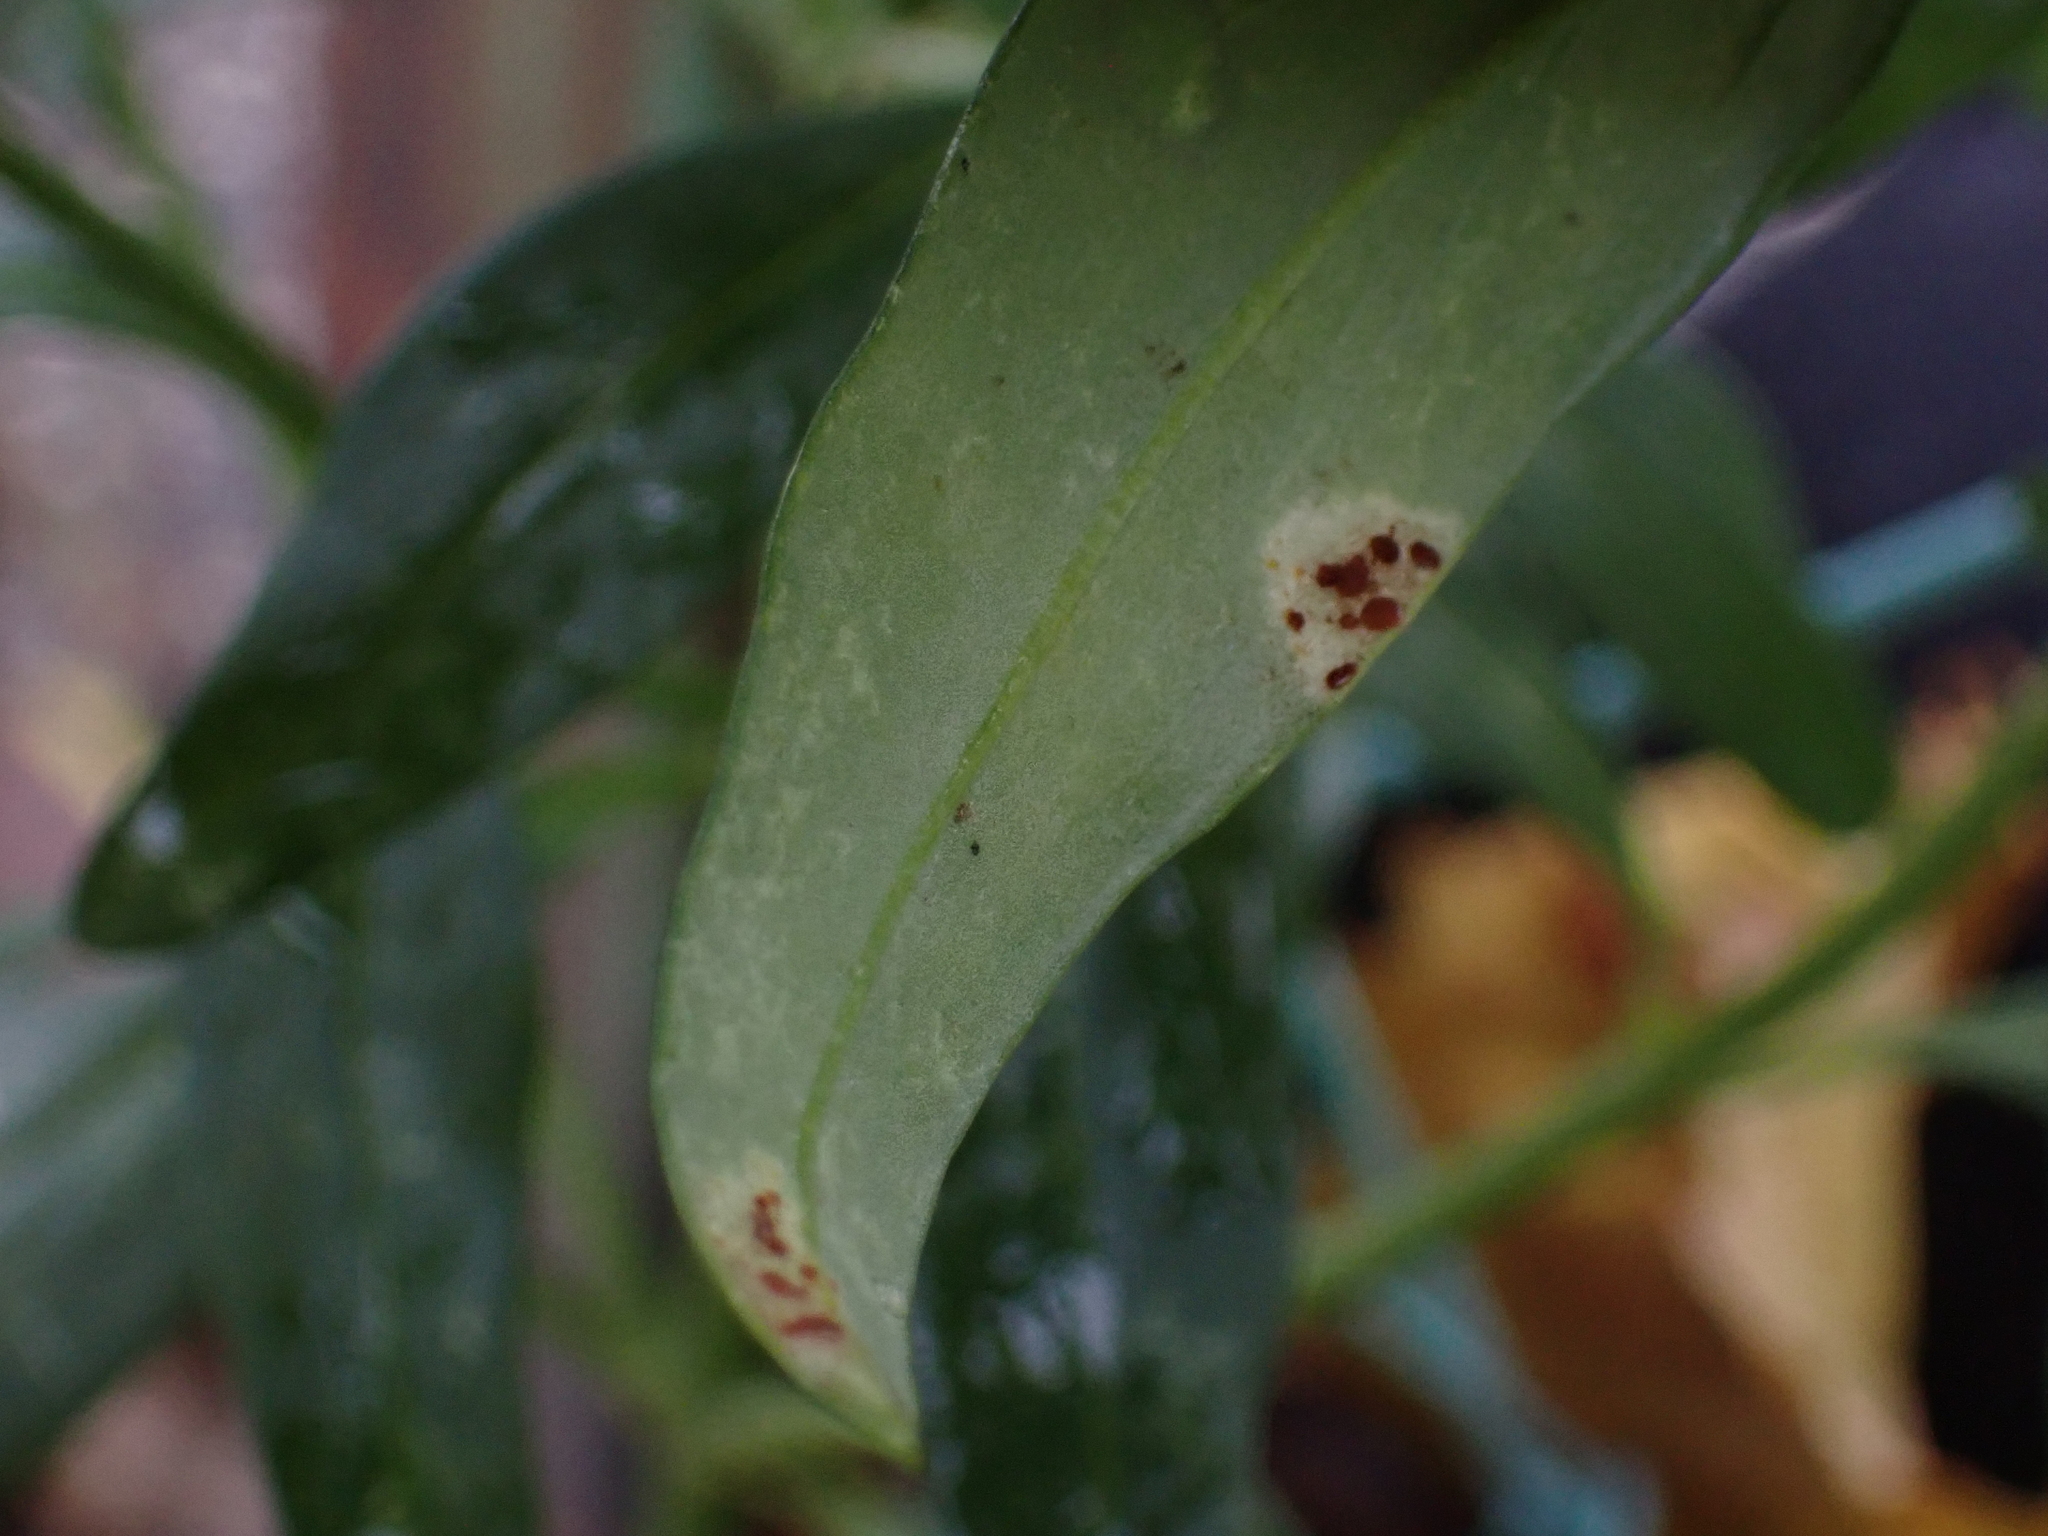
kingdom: Fungi
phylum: Basidiomycota
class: Pucciniomycetes
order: Pucciniales
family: Pucciniaceae
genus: Puccinia
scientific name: Puccinia antirrhini
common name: Antirrhinum rust
